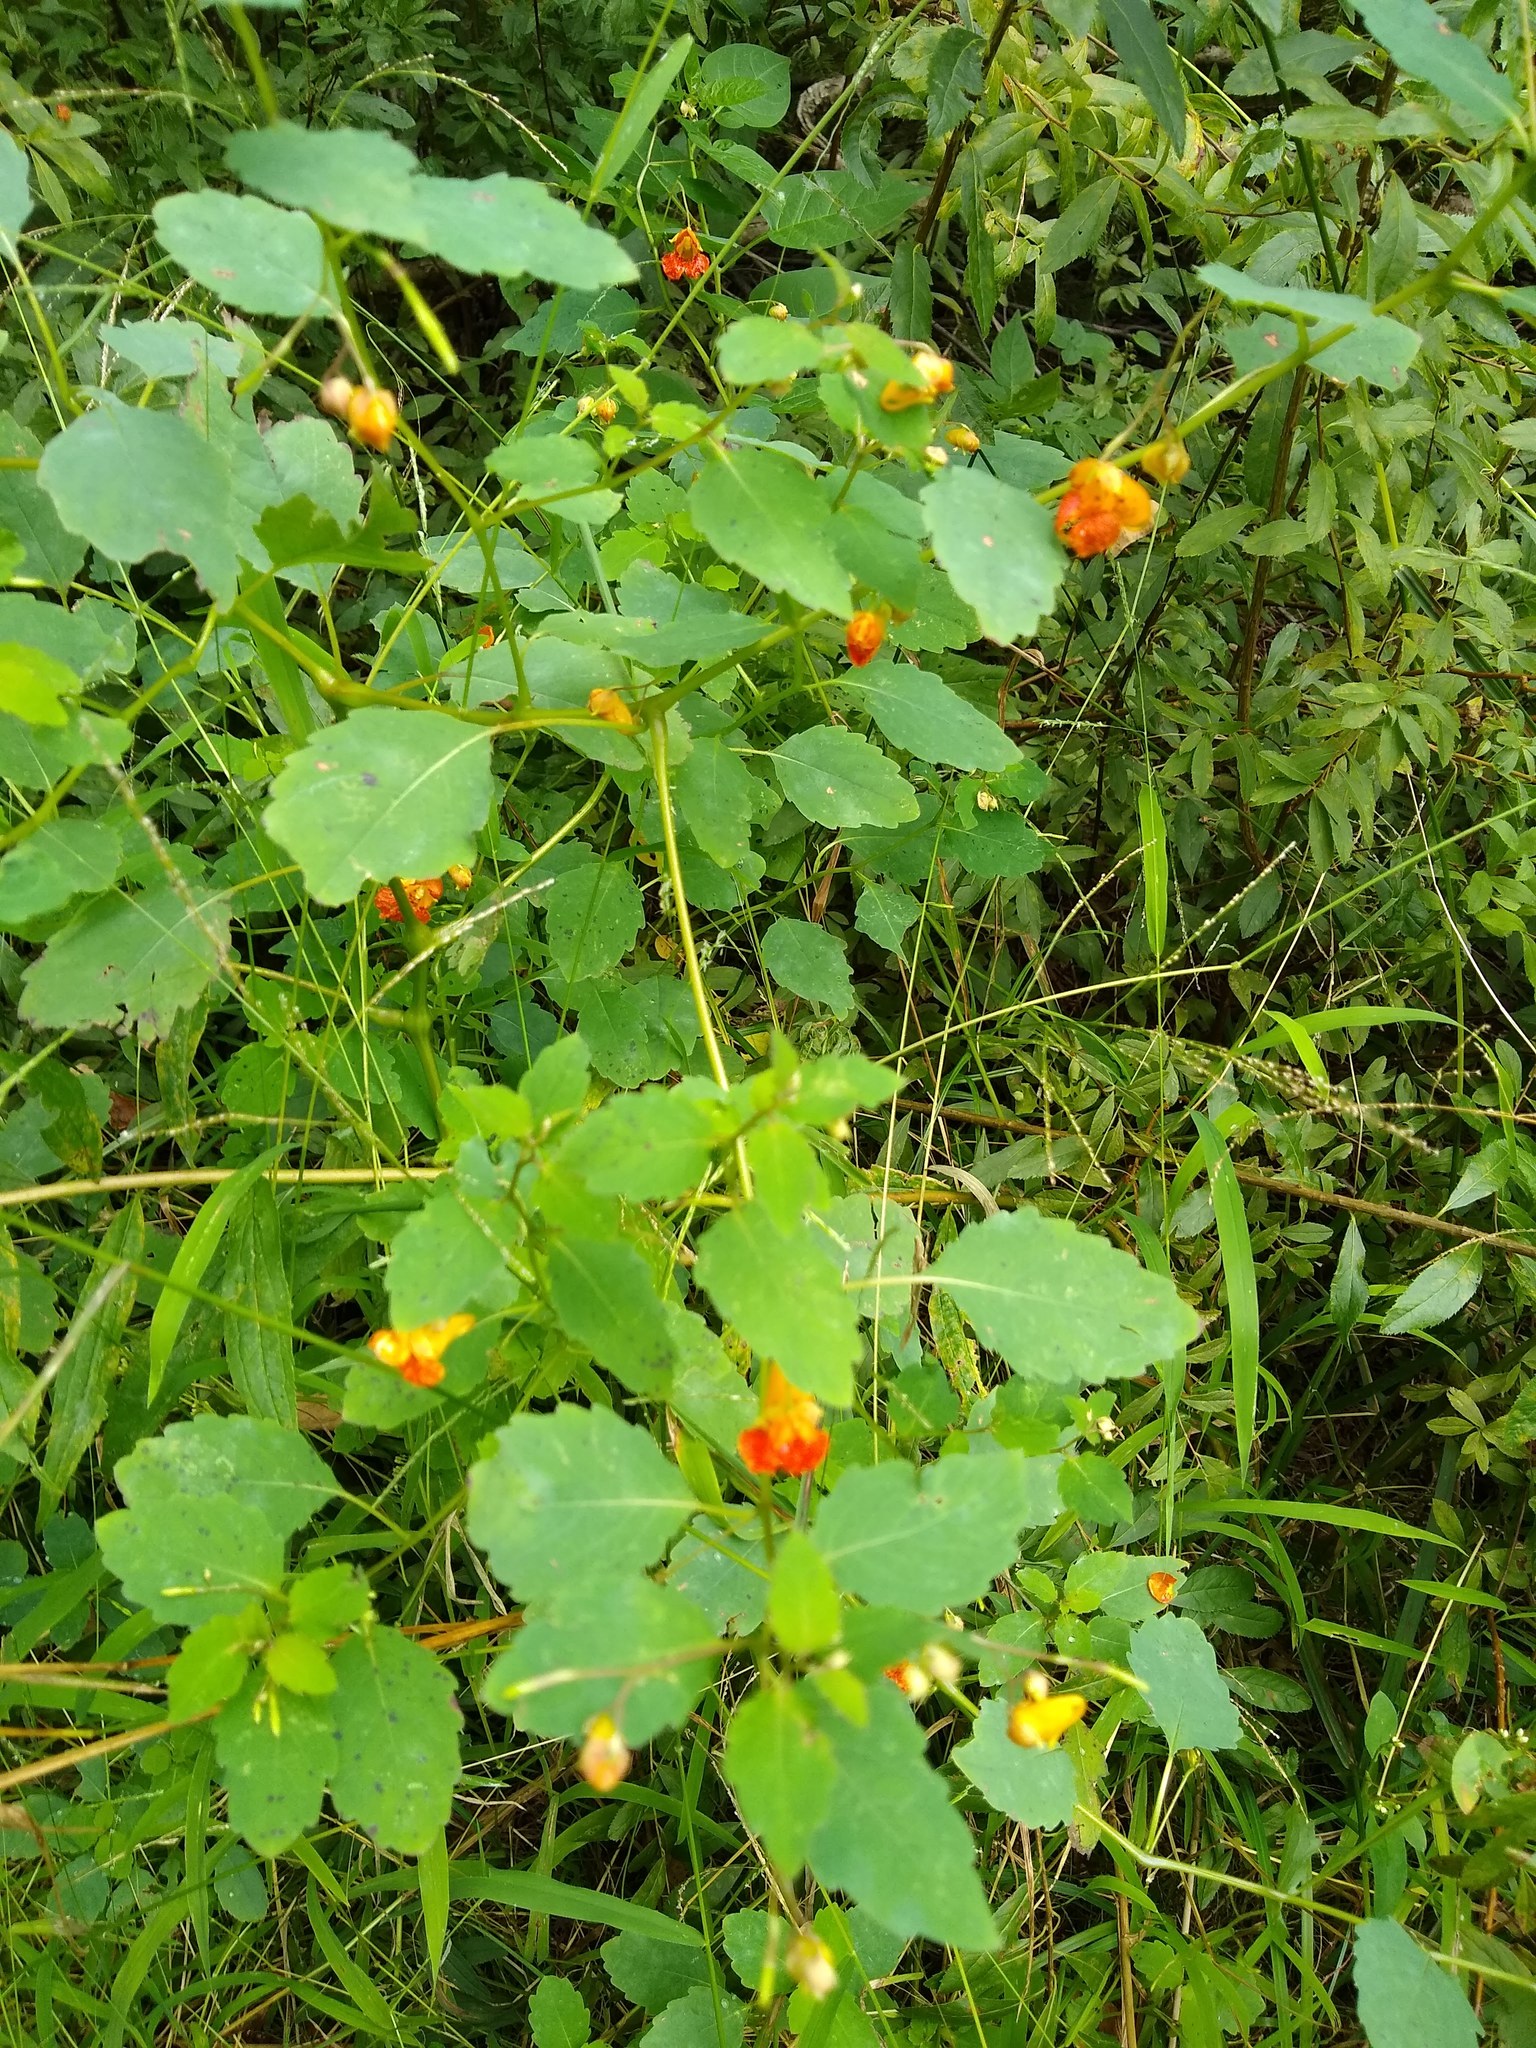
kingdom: Plantae
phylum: Tracheophyta
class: Magnoliopsida
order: Ericales
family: Balsaminaceae
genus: Impatiens
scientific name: Impatiens capensis
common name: Orange balsam
